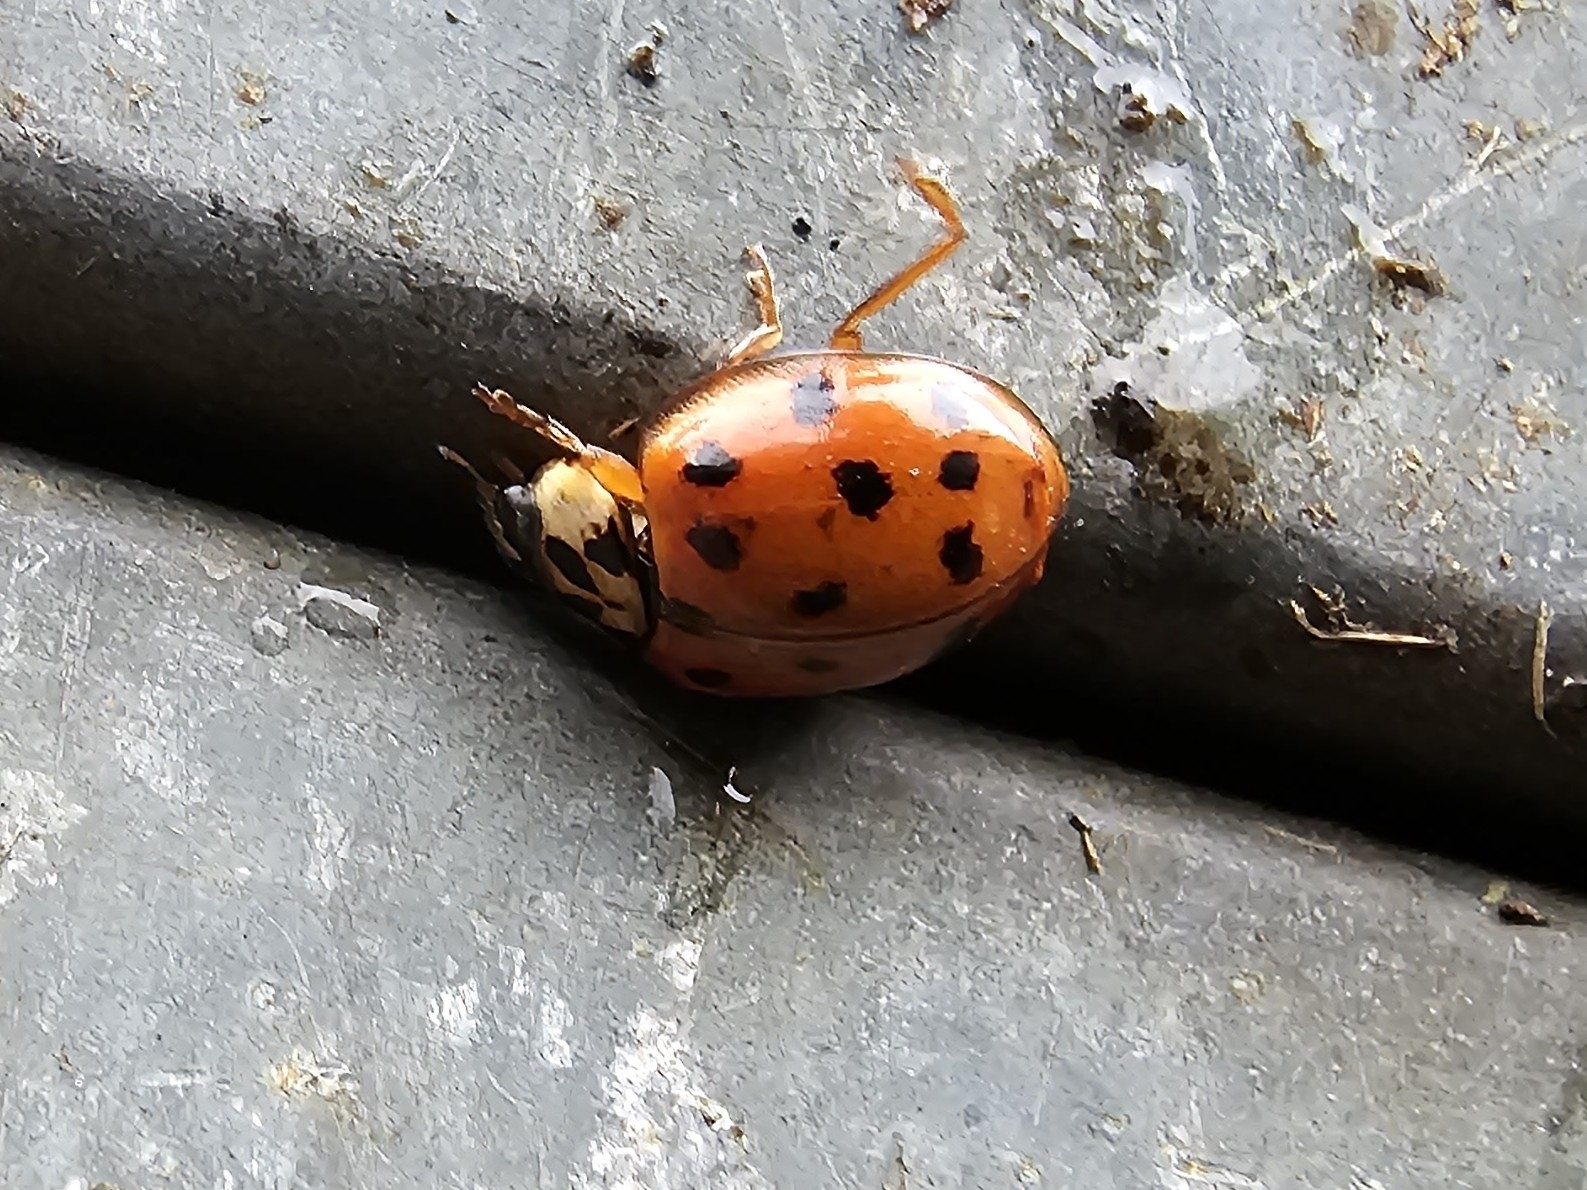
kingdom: Animalia
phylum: Arthropoda
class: Insecta
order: Coleoptera
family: Coccinellidae
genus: Harmonia
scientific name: Harmonia axyridis
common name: Harlequin ladybird
